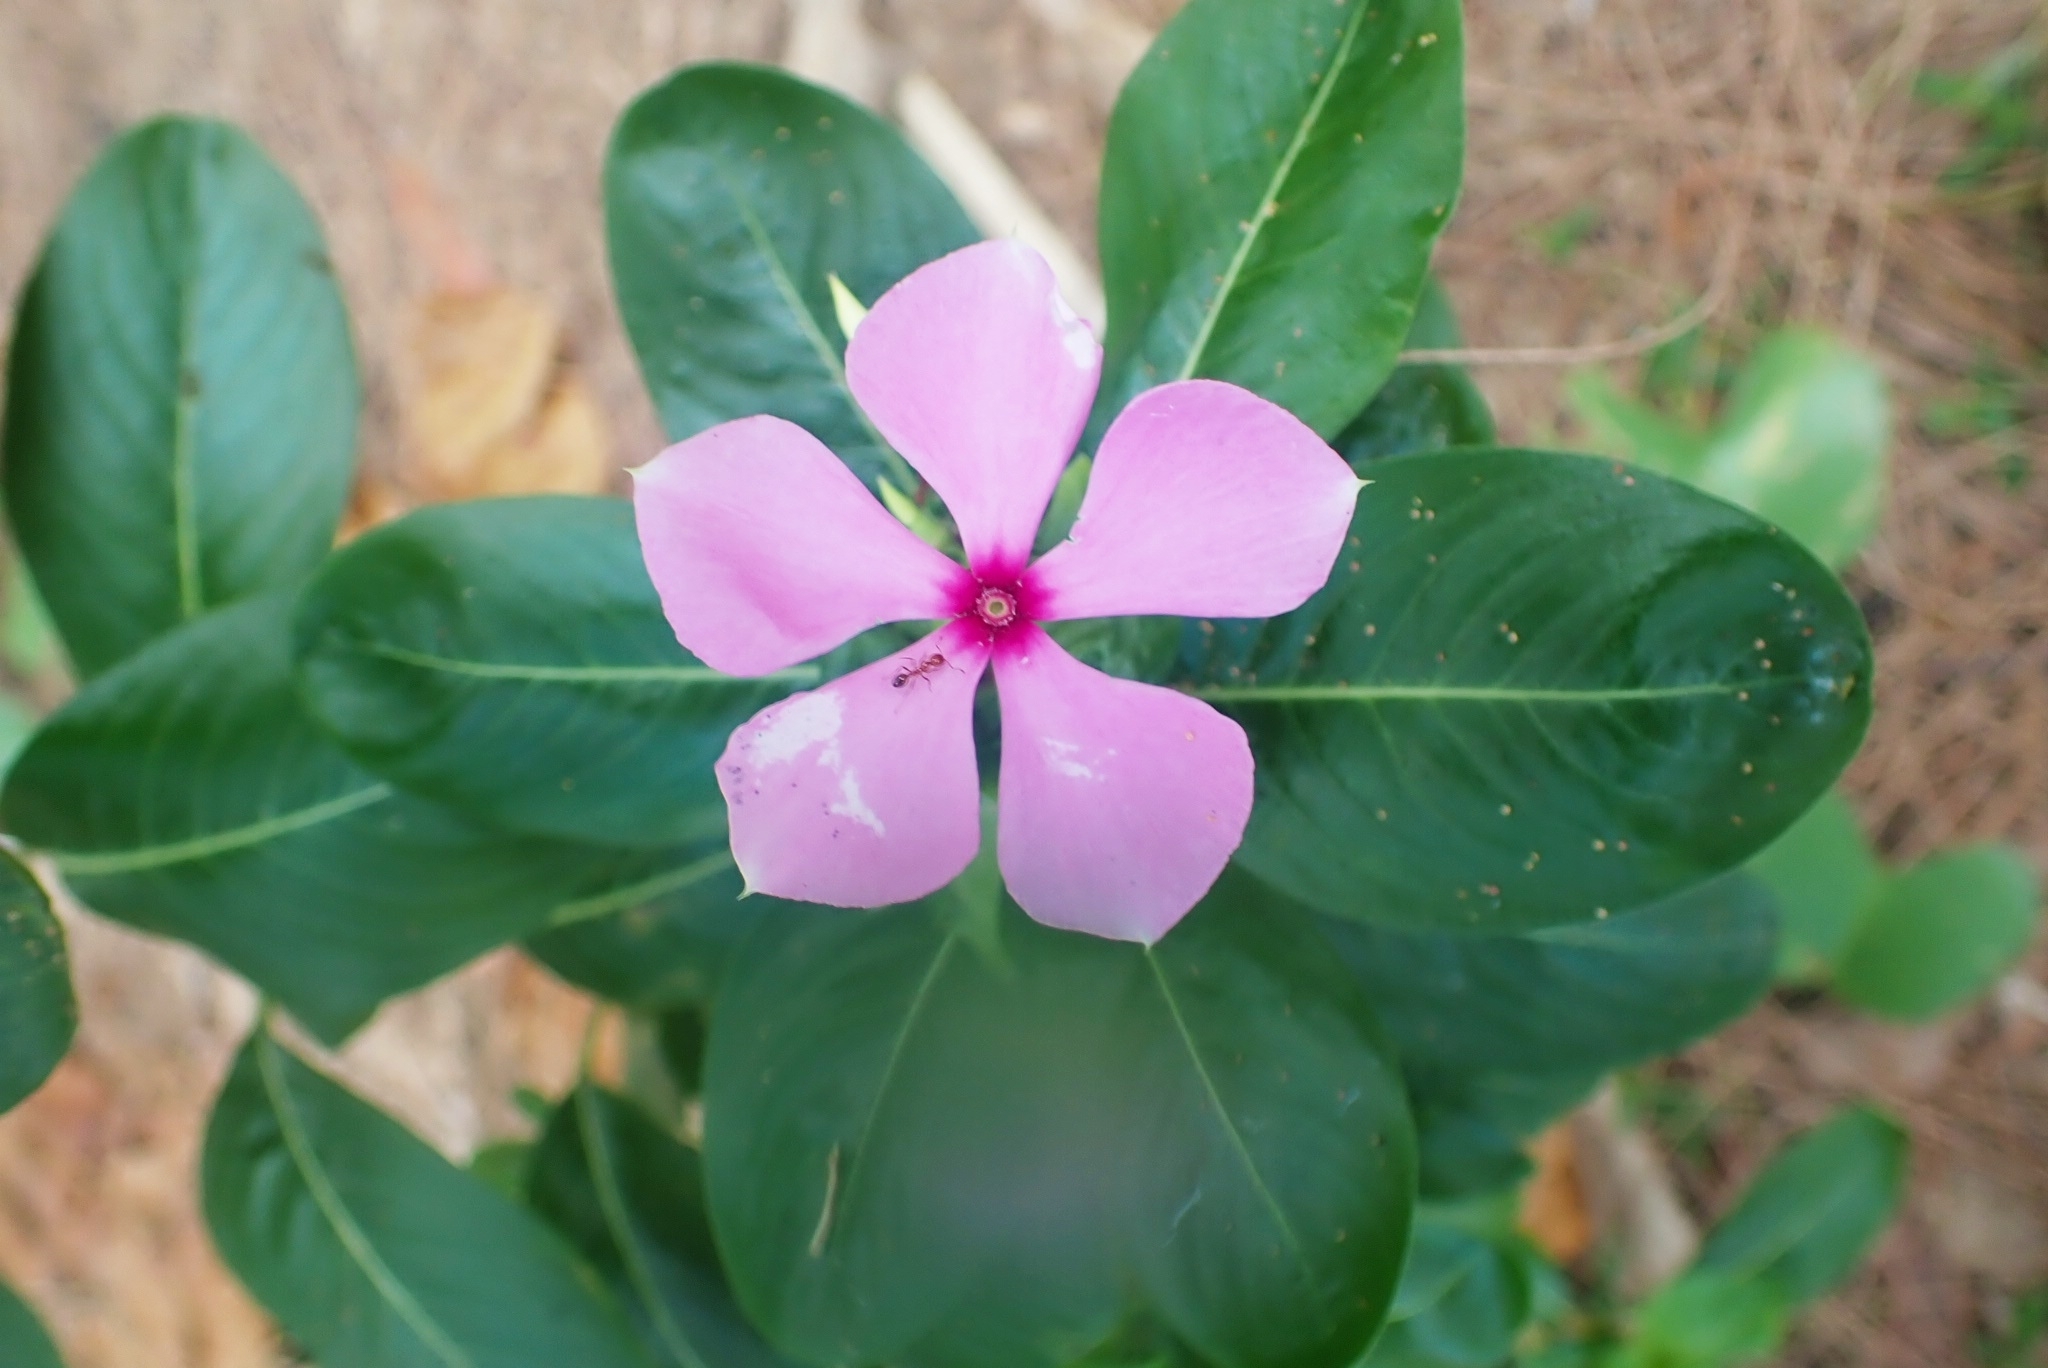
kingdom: Plantae
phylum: Tracheophyta
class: Magnoliopsida
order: Gentianales
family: Apocynaceae
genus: Catharanthus
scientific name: Catharanthus roseus
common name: Madagascar periwinkle
